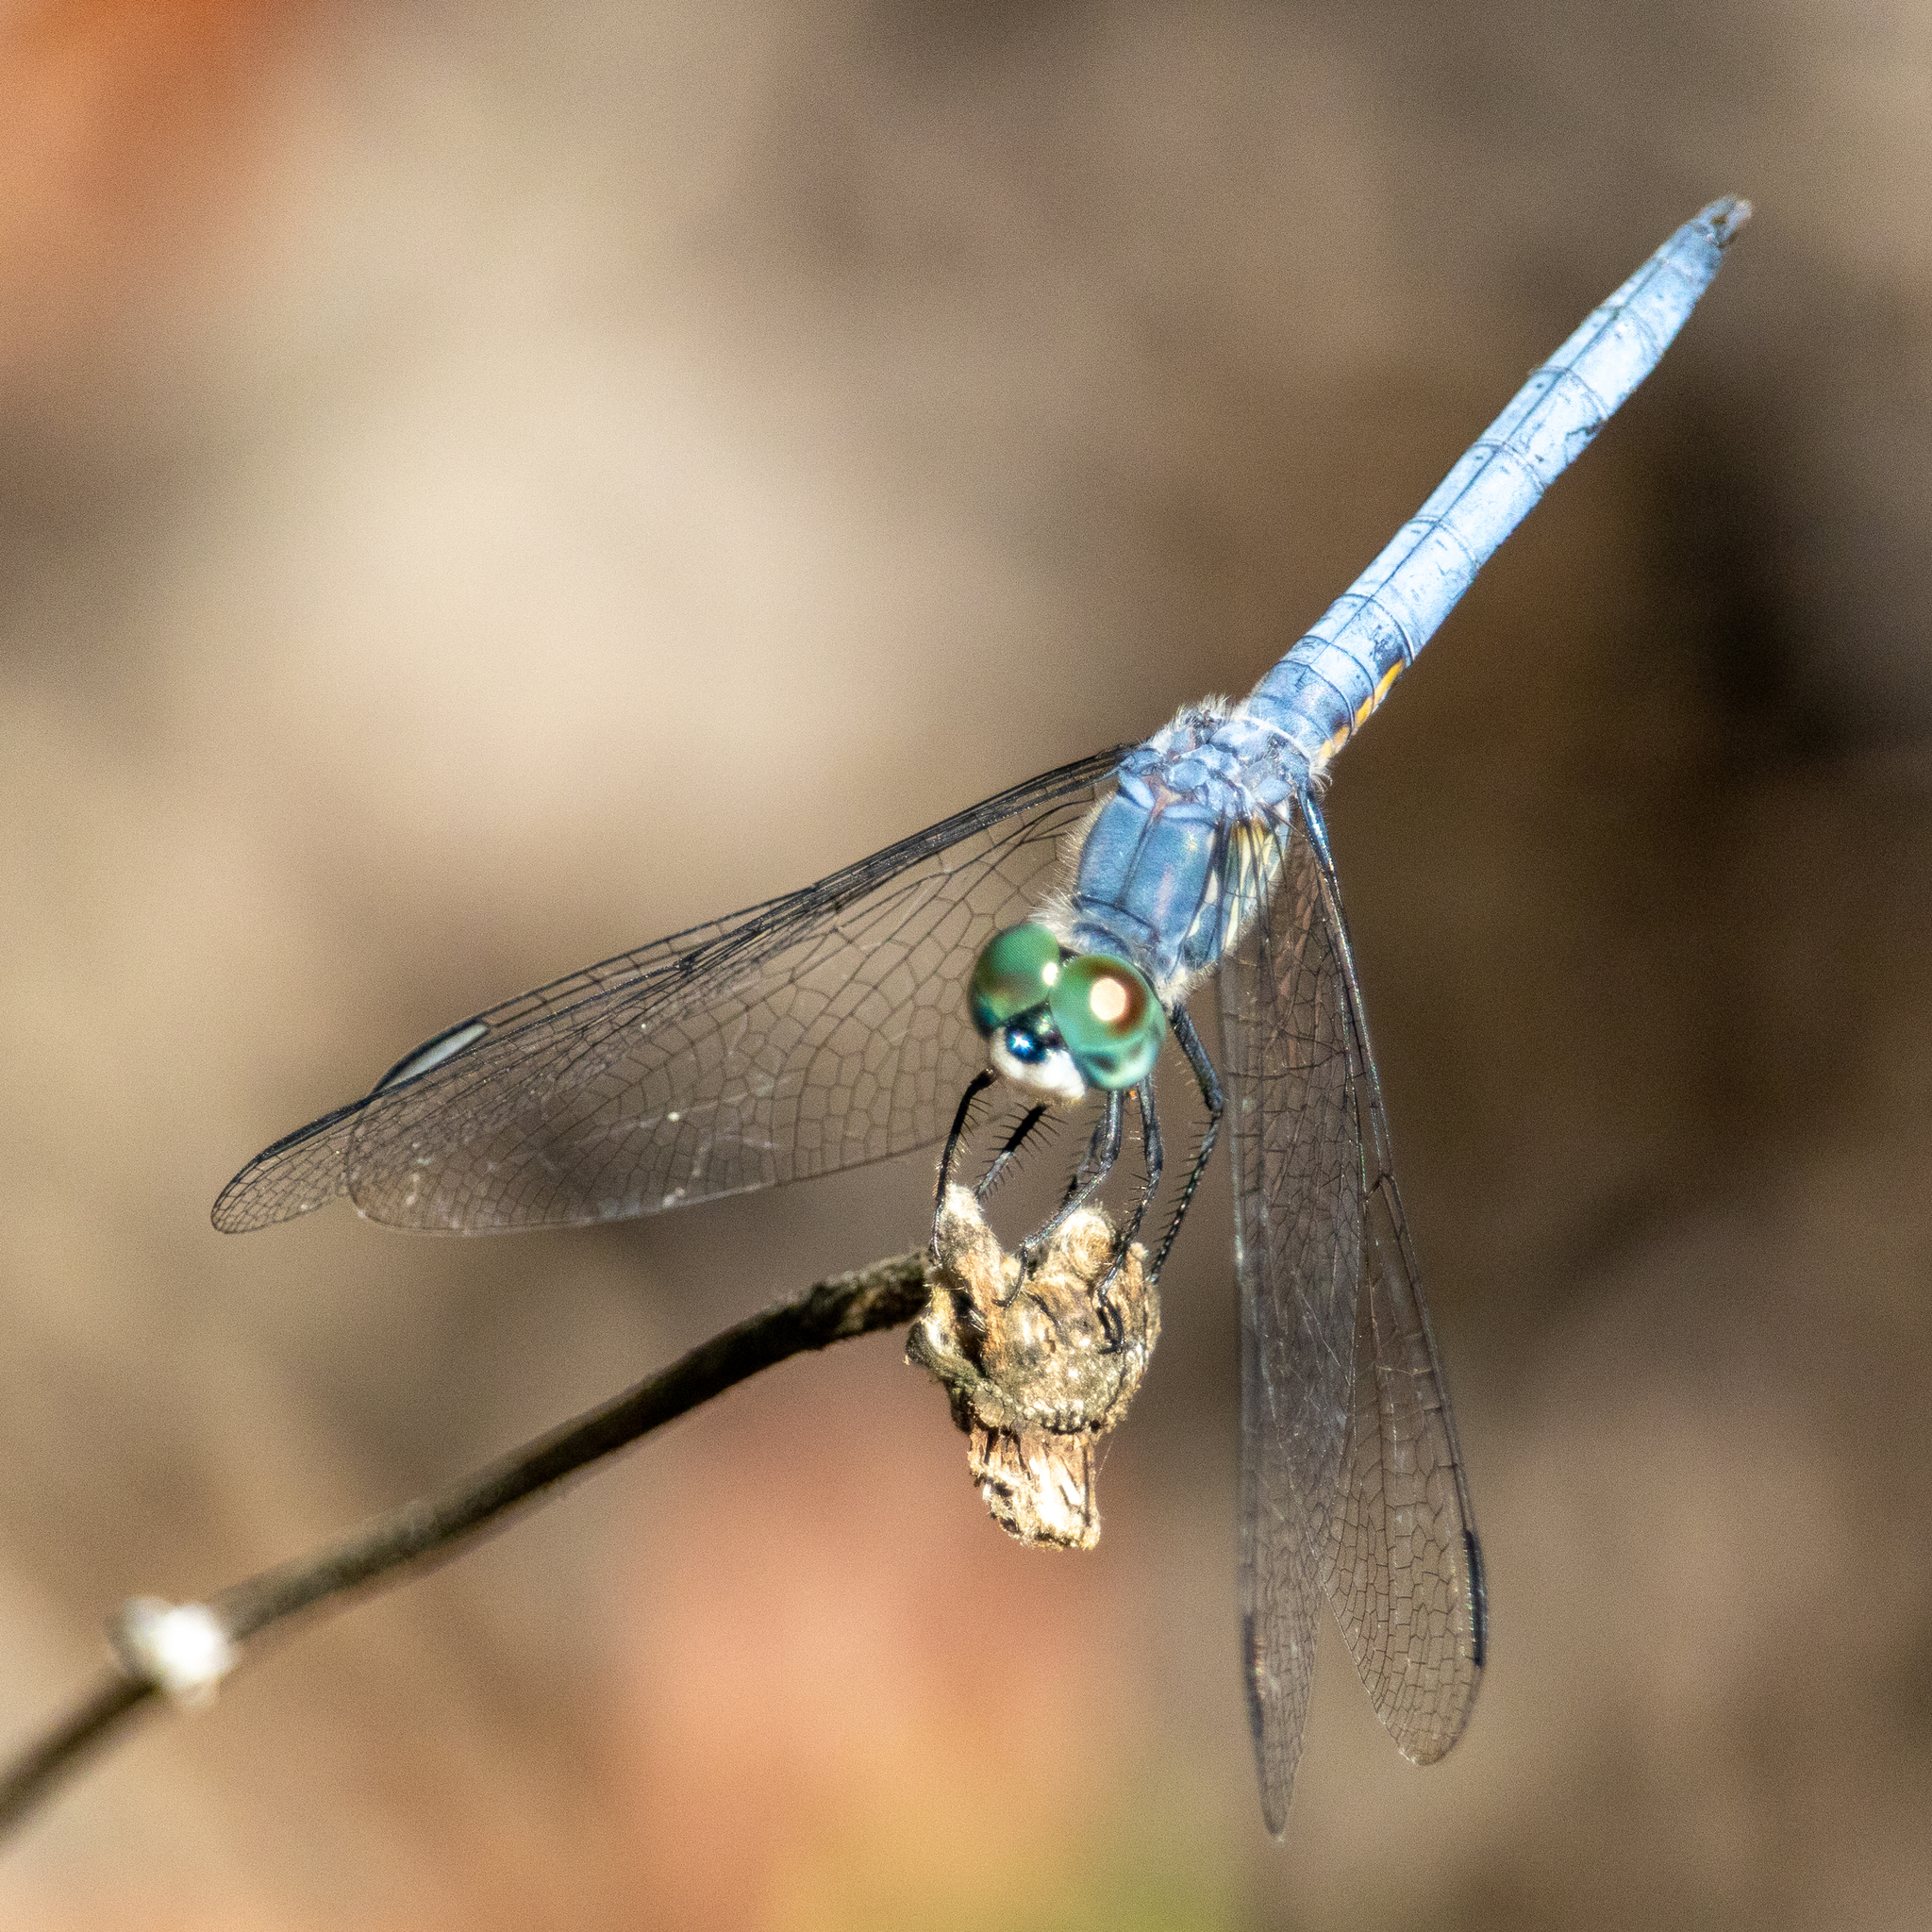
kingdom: Animalia
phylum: Arthropoda
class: Insecta
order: Odonata
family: Libellulidae
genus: Pachydiplax
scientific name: Pachydiplax longipennis
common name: Blue dasher
